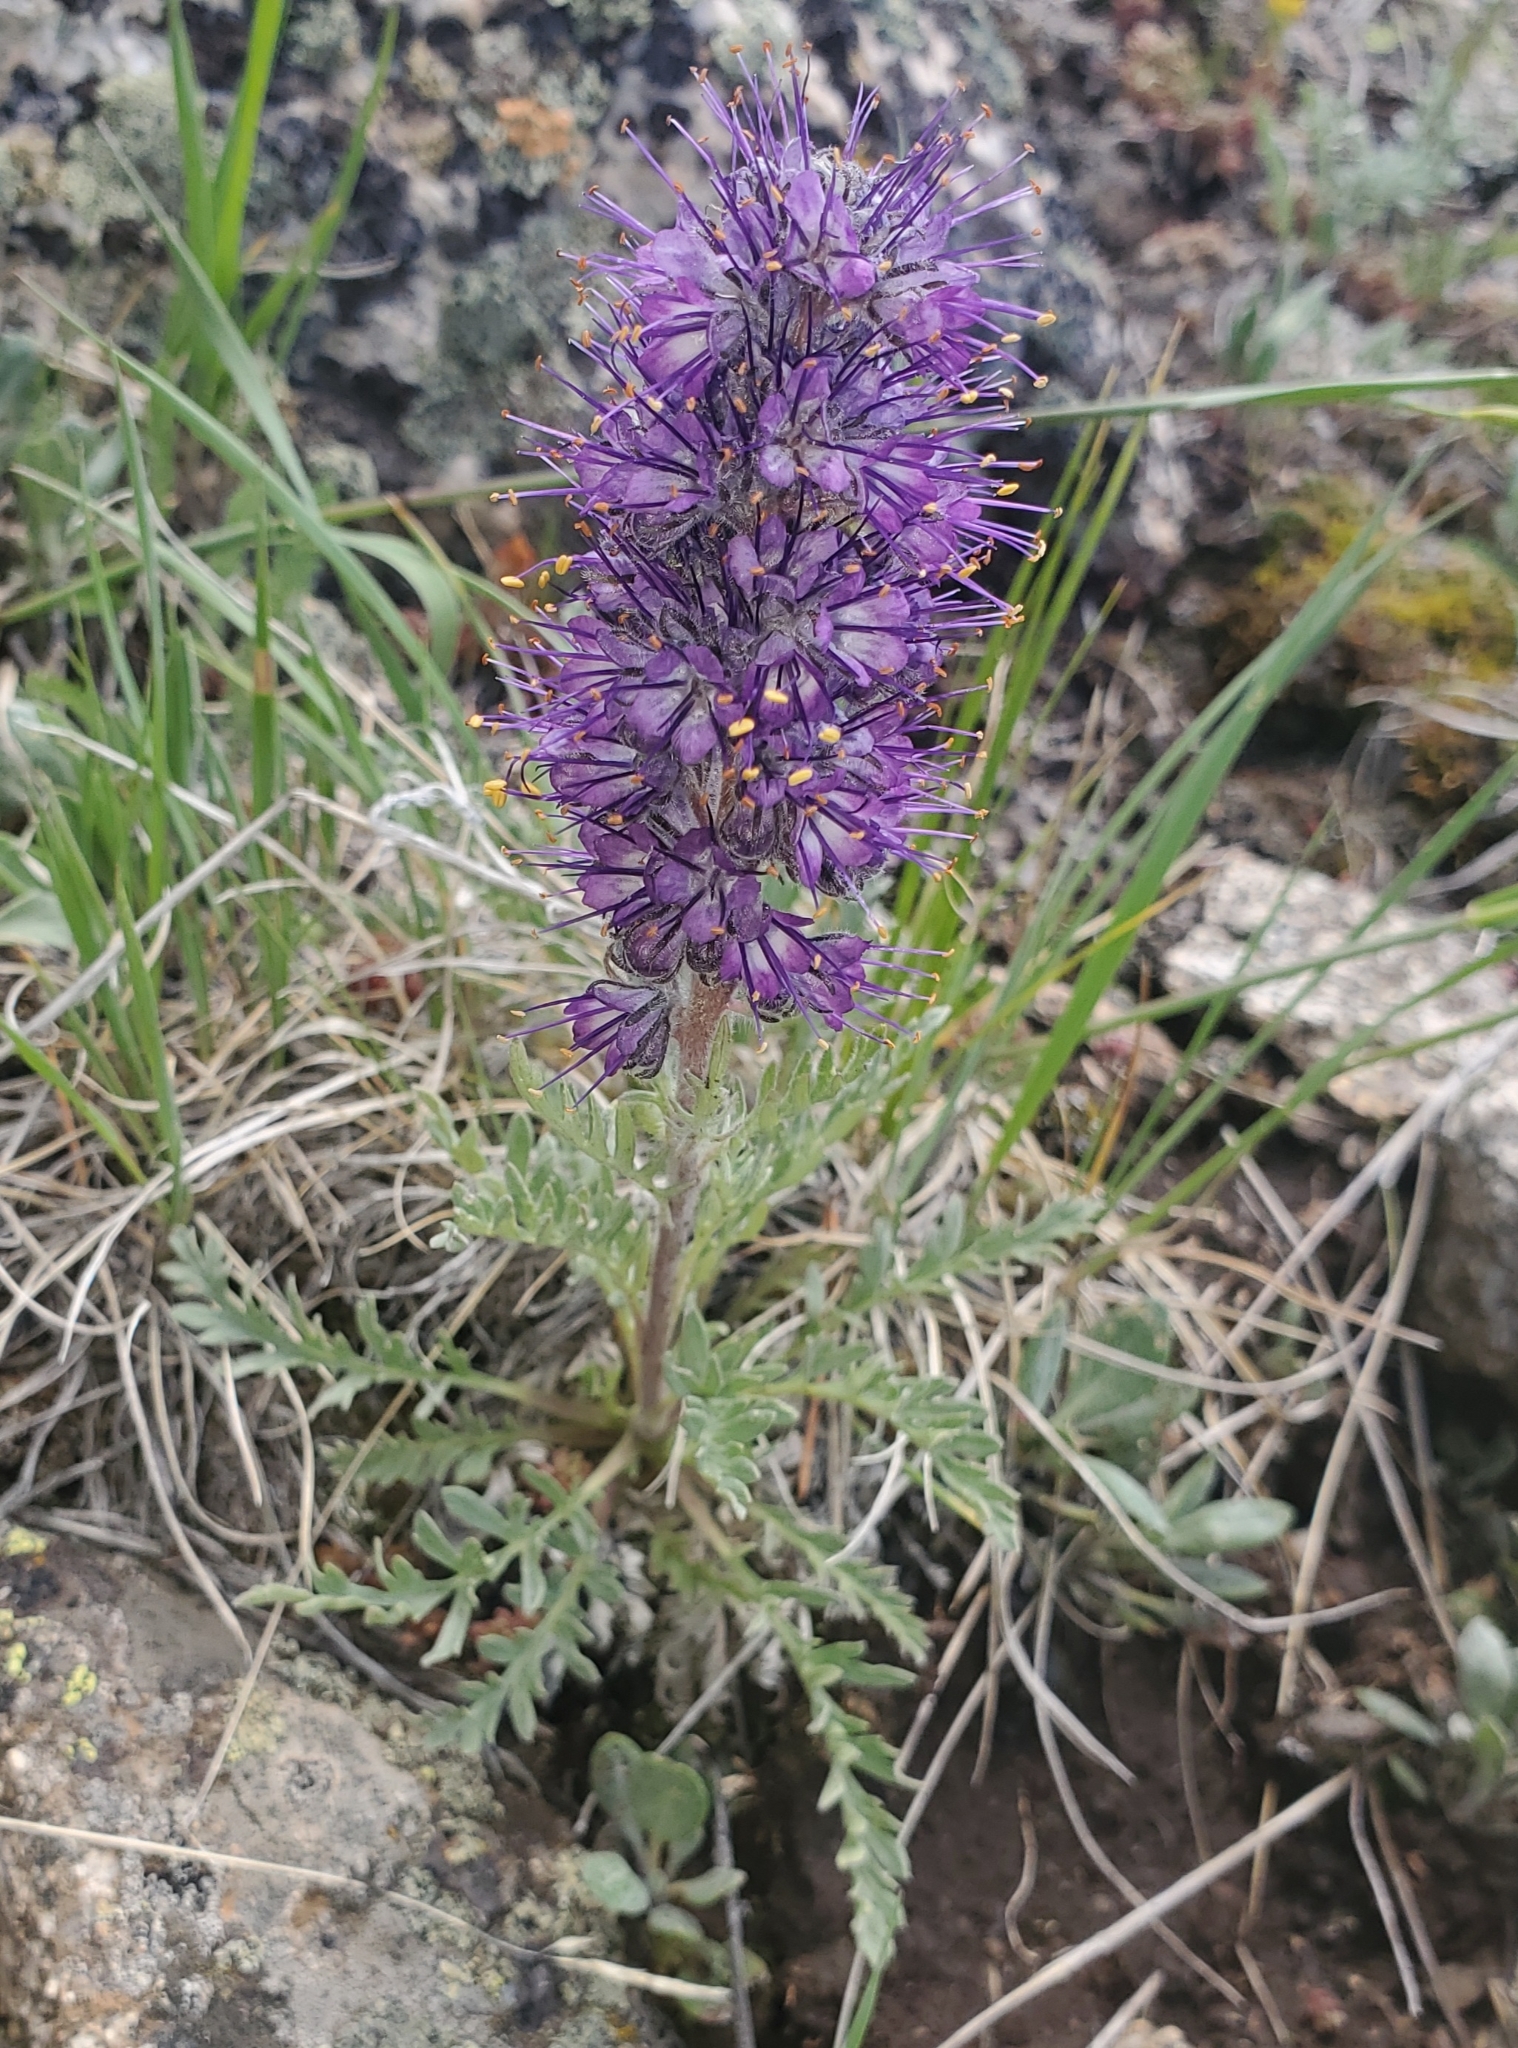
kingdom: Plantae
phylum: Tracheophyta
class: Magnoliopsida
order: Boraginales
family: Hydrophyllaceae
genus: Phacelia
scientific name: Phacelia sericea
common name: Silky phacelia
